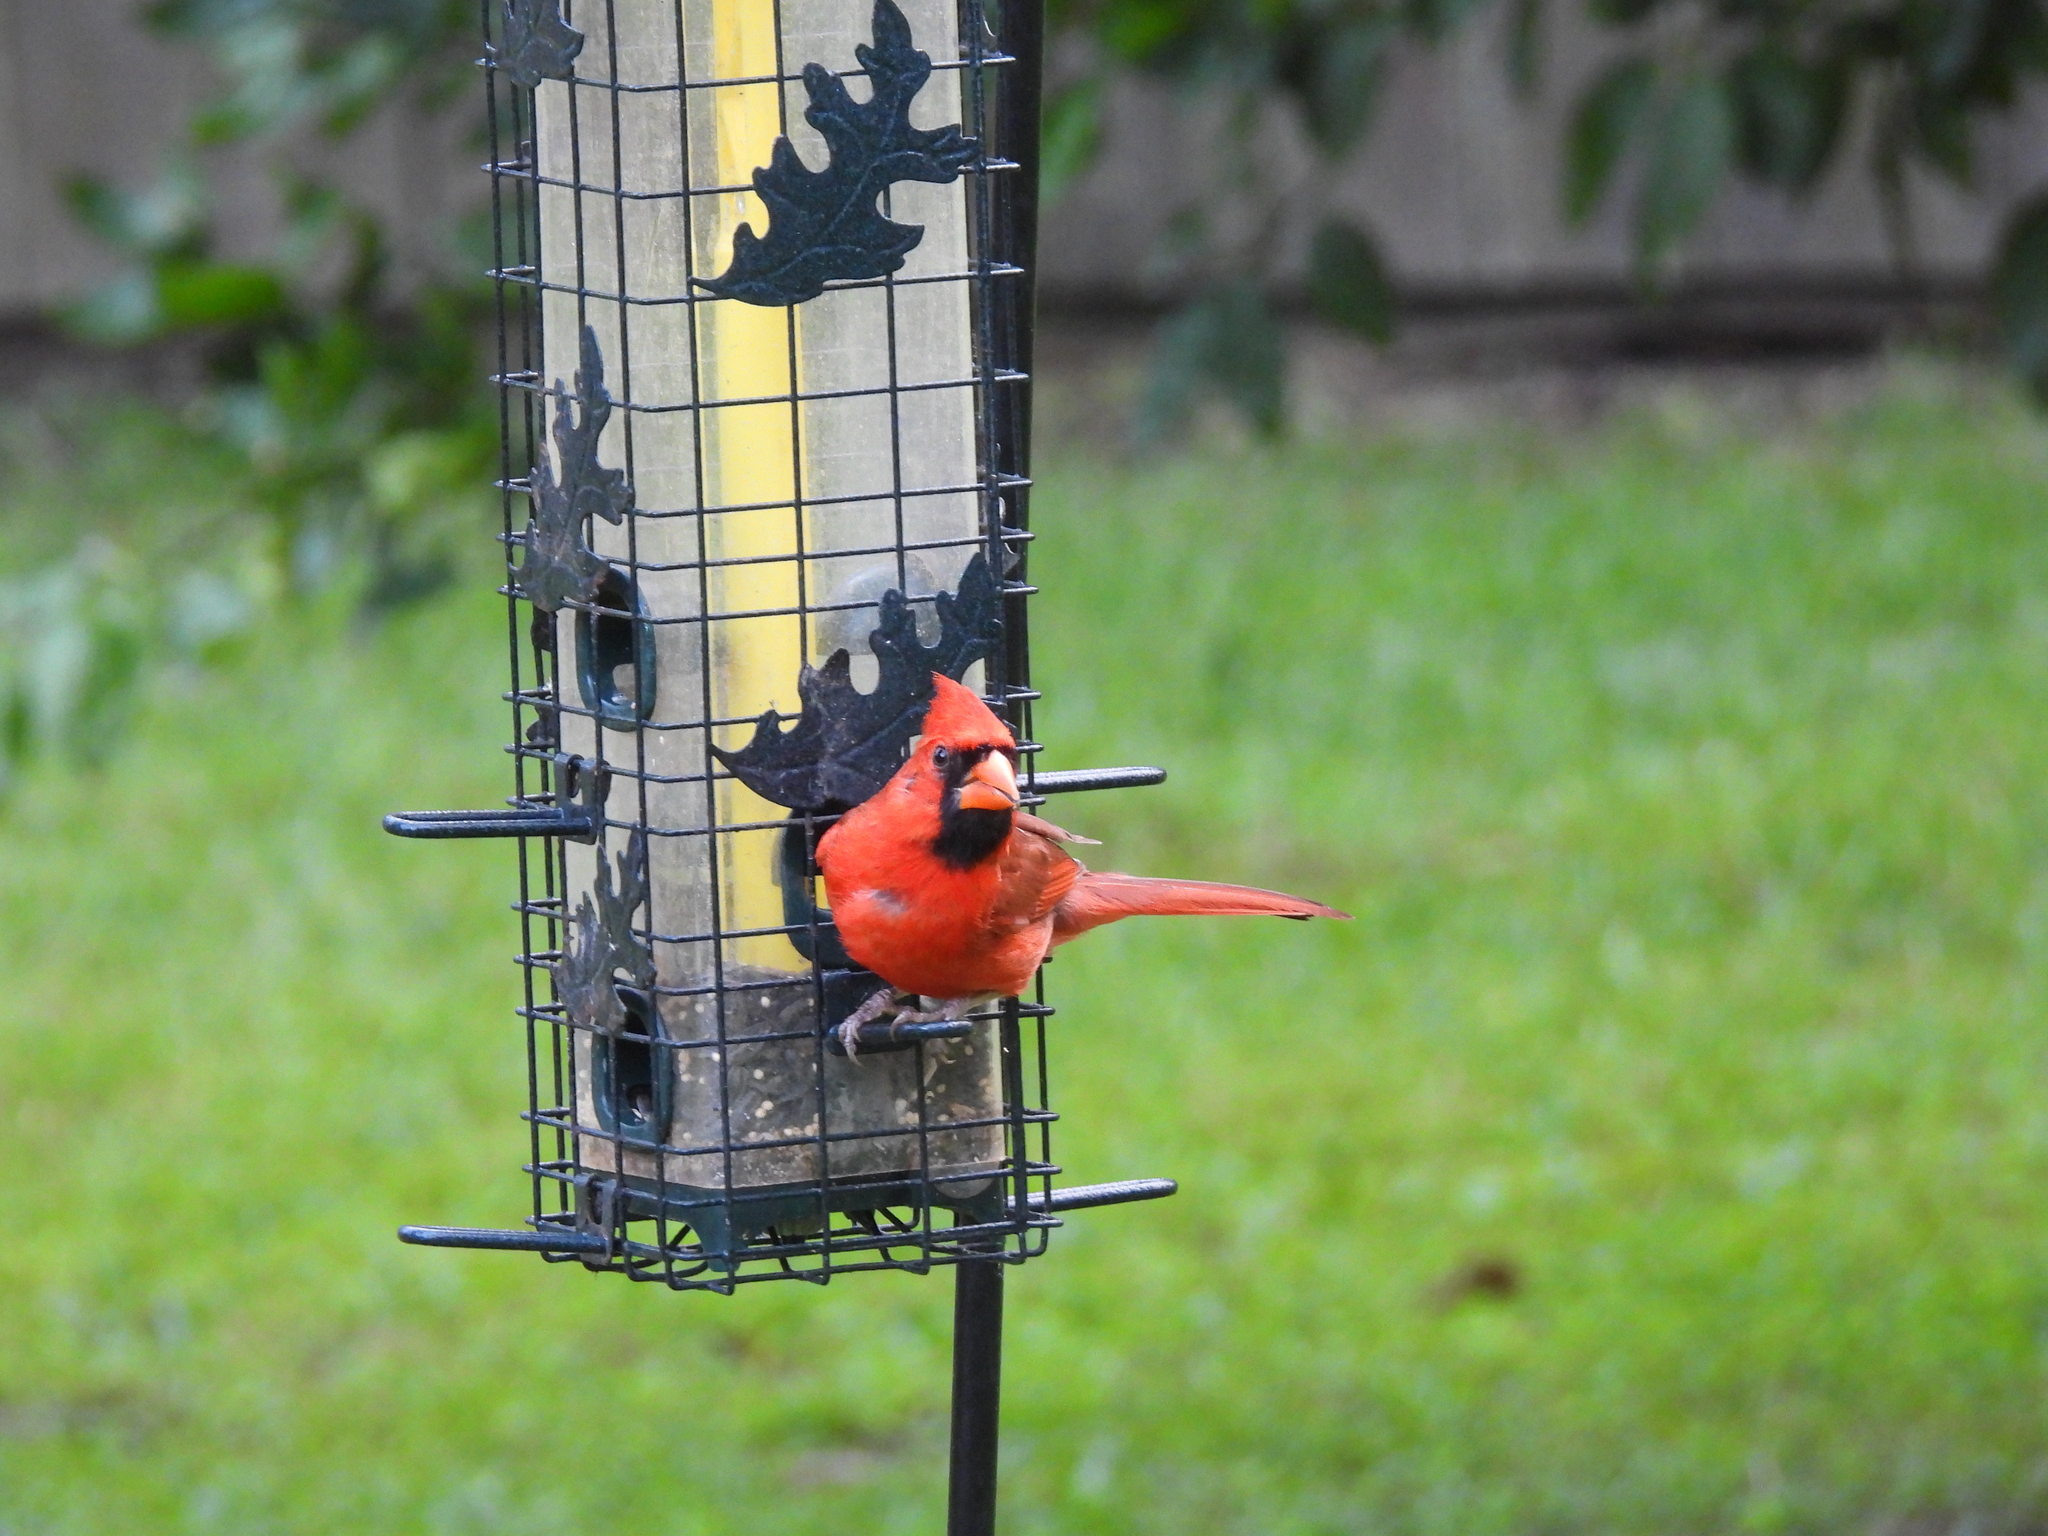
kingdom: Animalia
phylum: Chordata
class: Aves
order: Passeriformes
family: Cardinalidae
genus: Cardinalis
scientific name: Cardinalis cardinalis
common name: Northern cardinal
